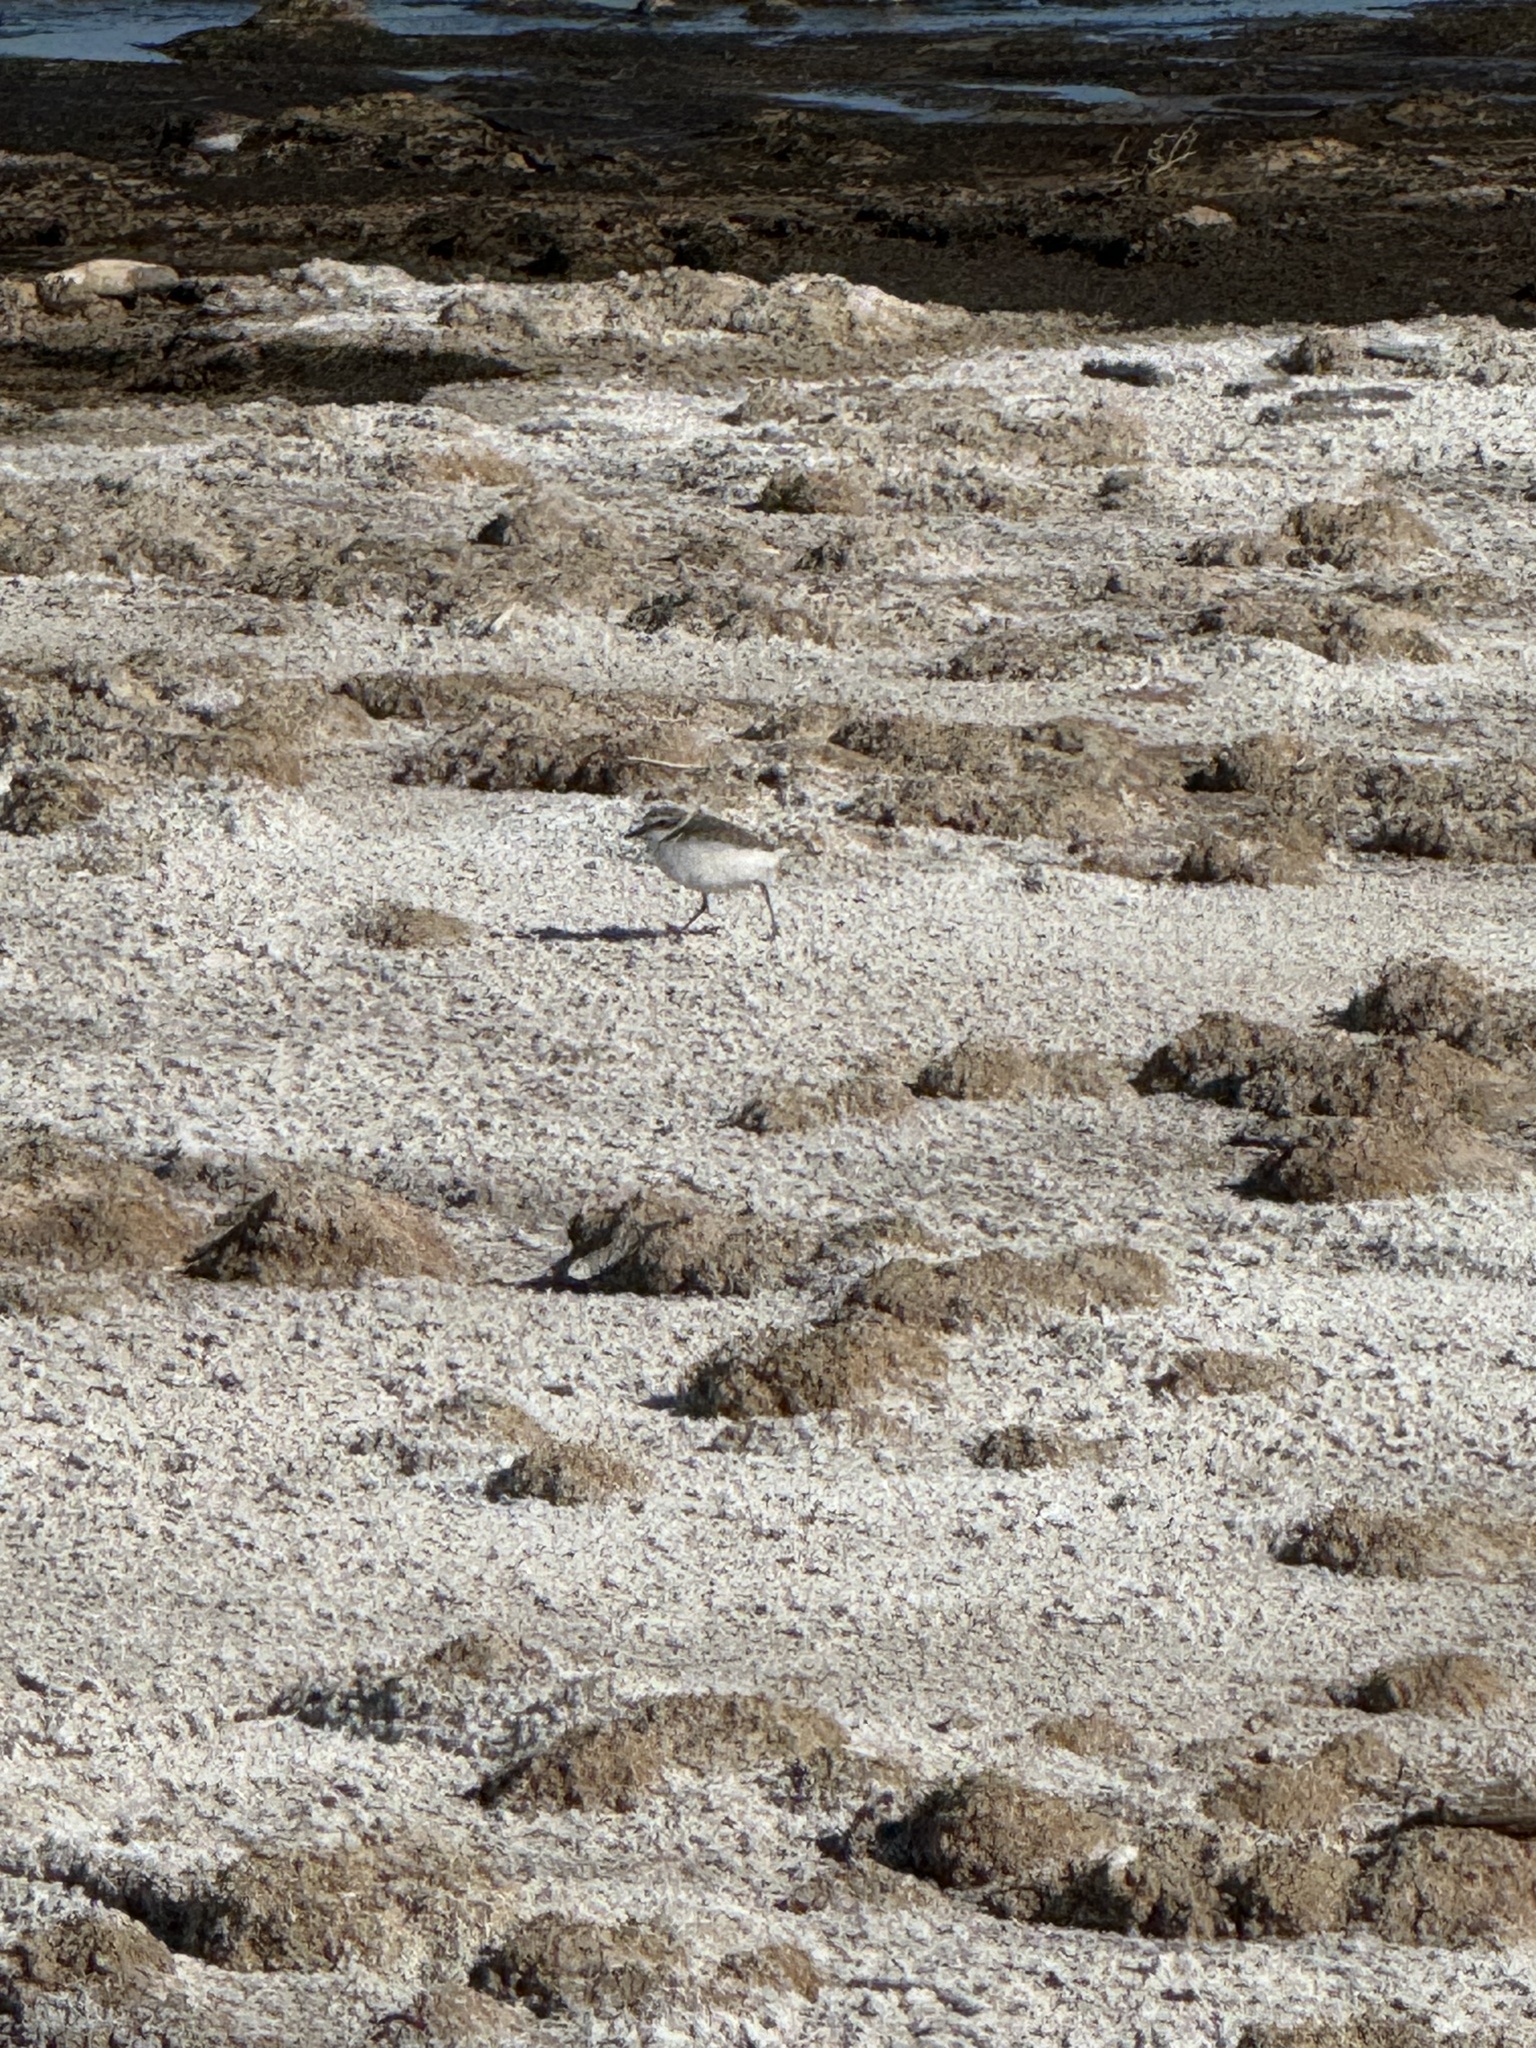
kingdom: Animalia
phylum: Chordata
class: Aves
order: Charadriiformes
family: Charadriidae
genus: Anarhynchus
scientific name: Anarhynchus
